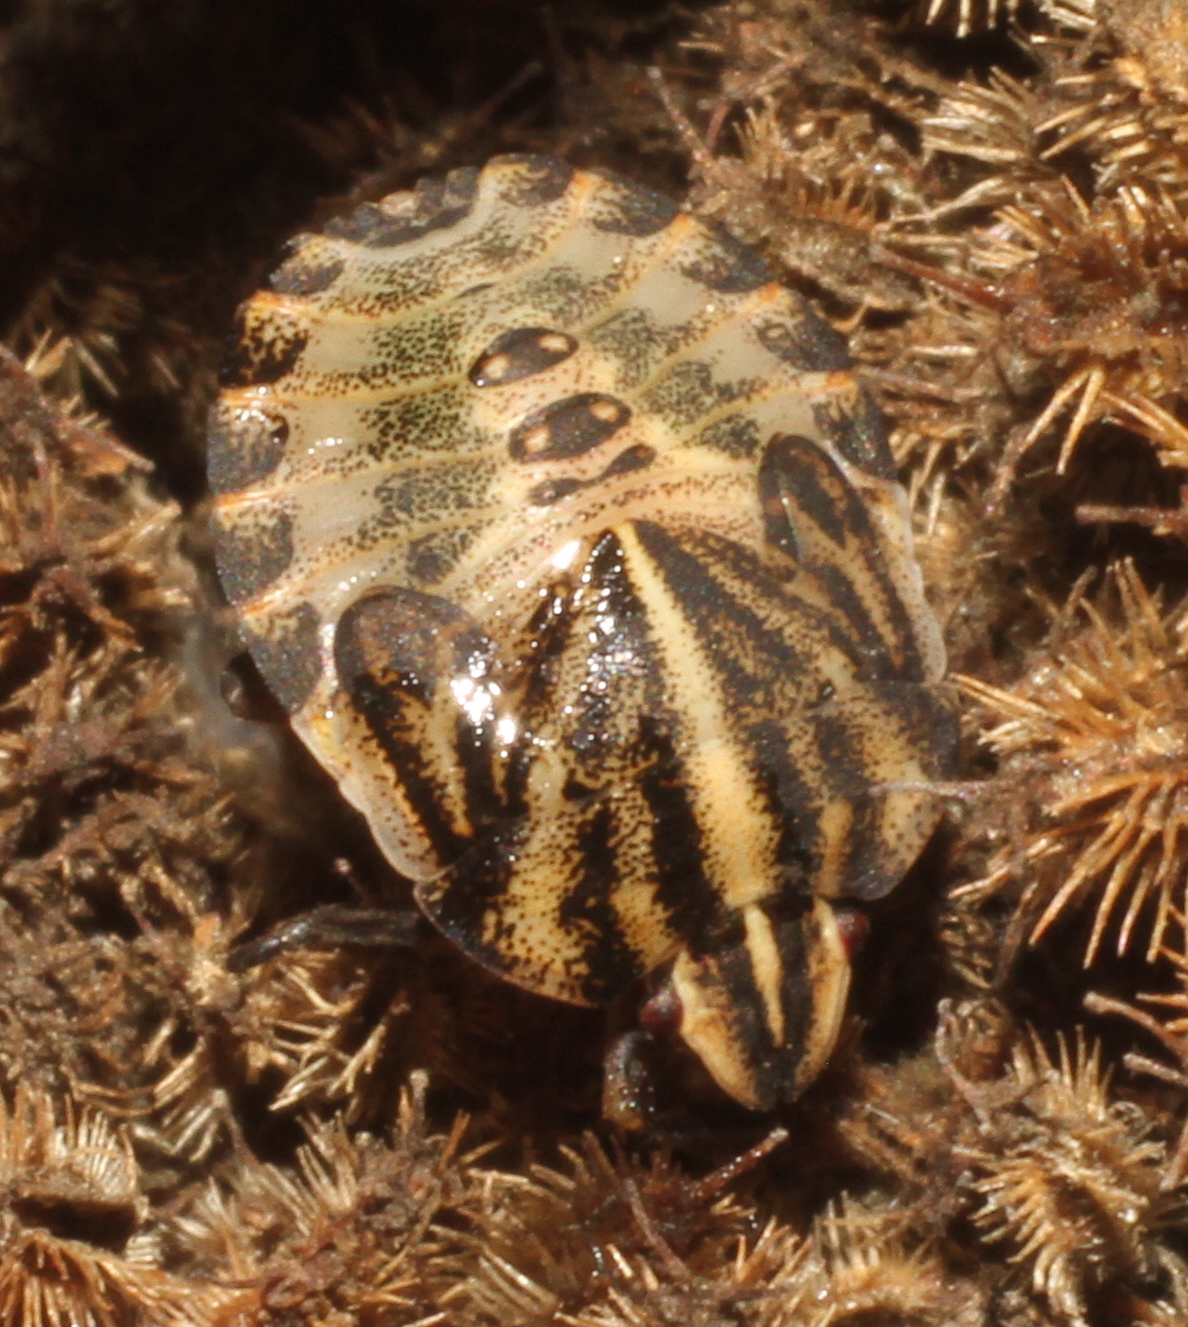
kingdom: Animalia
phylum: Arthropoda
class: Insecta
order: Hemiptera
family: Pentatomidae
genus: Graphosoma
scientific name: Graphosoma italicum
